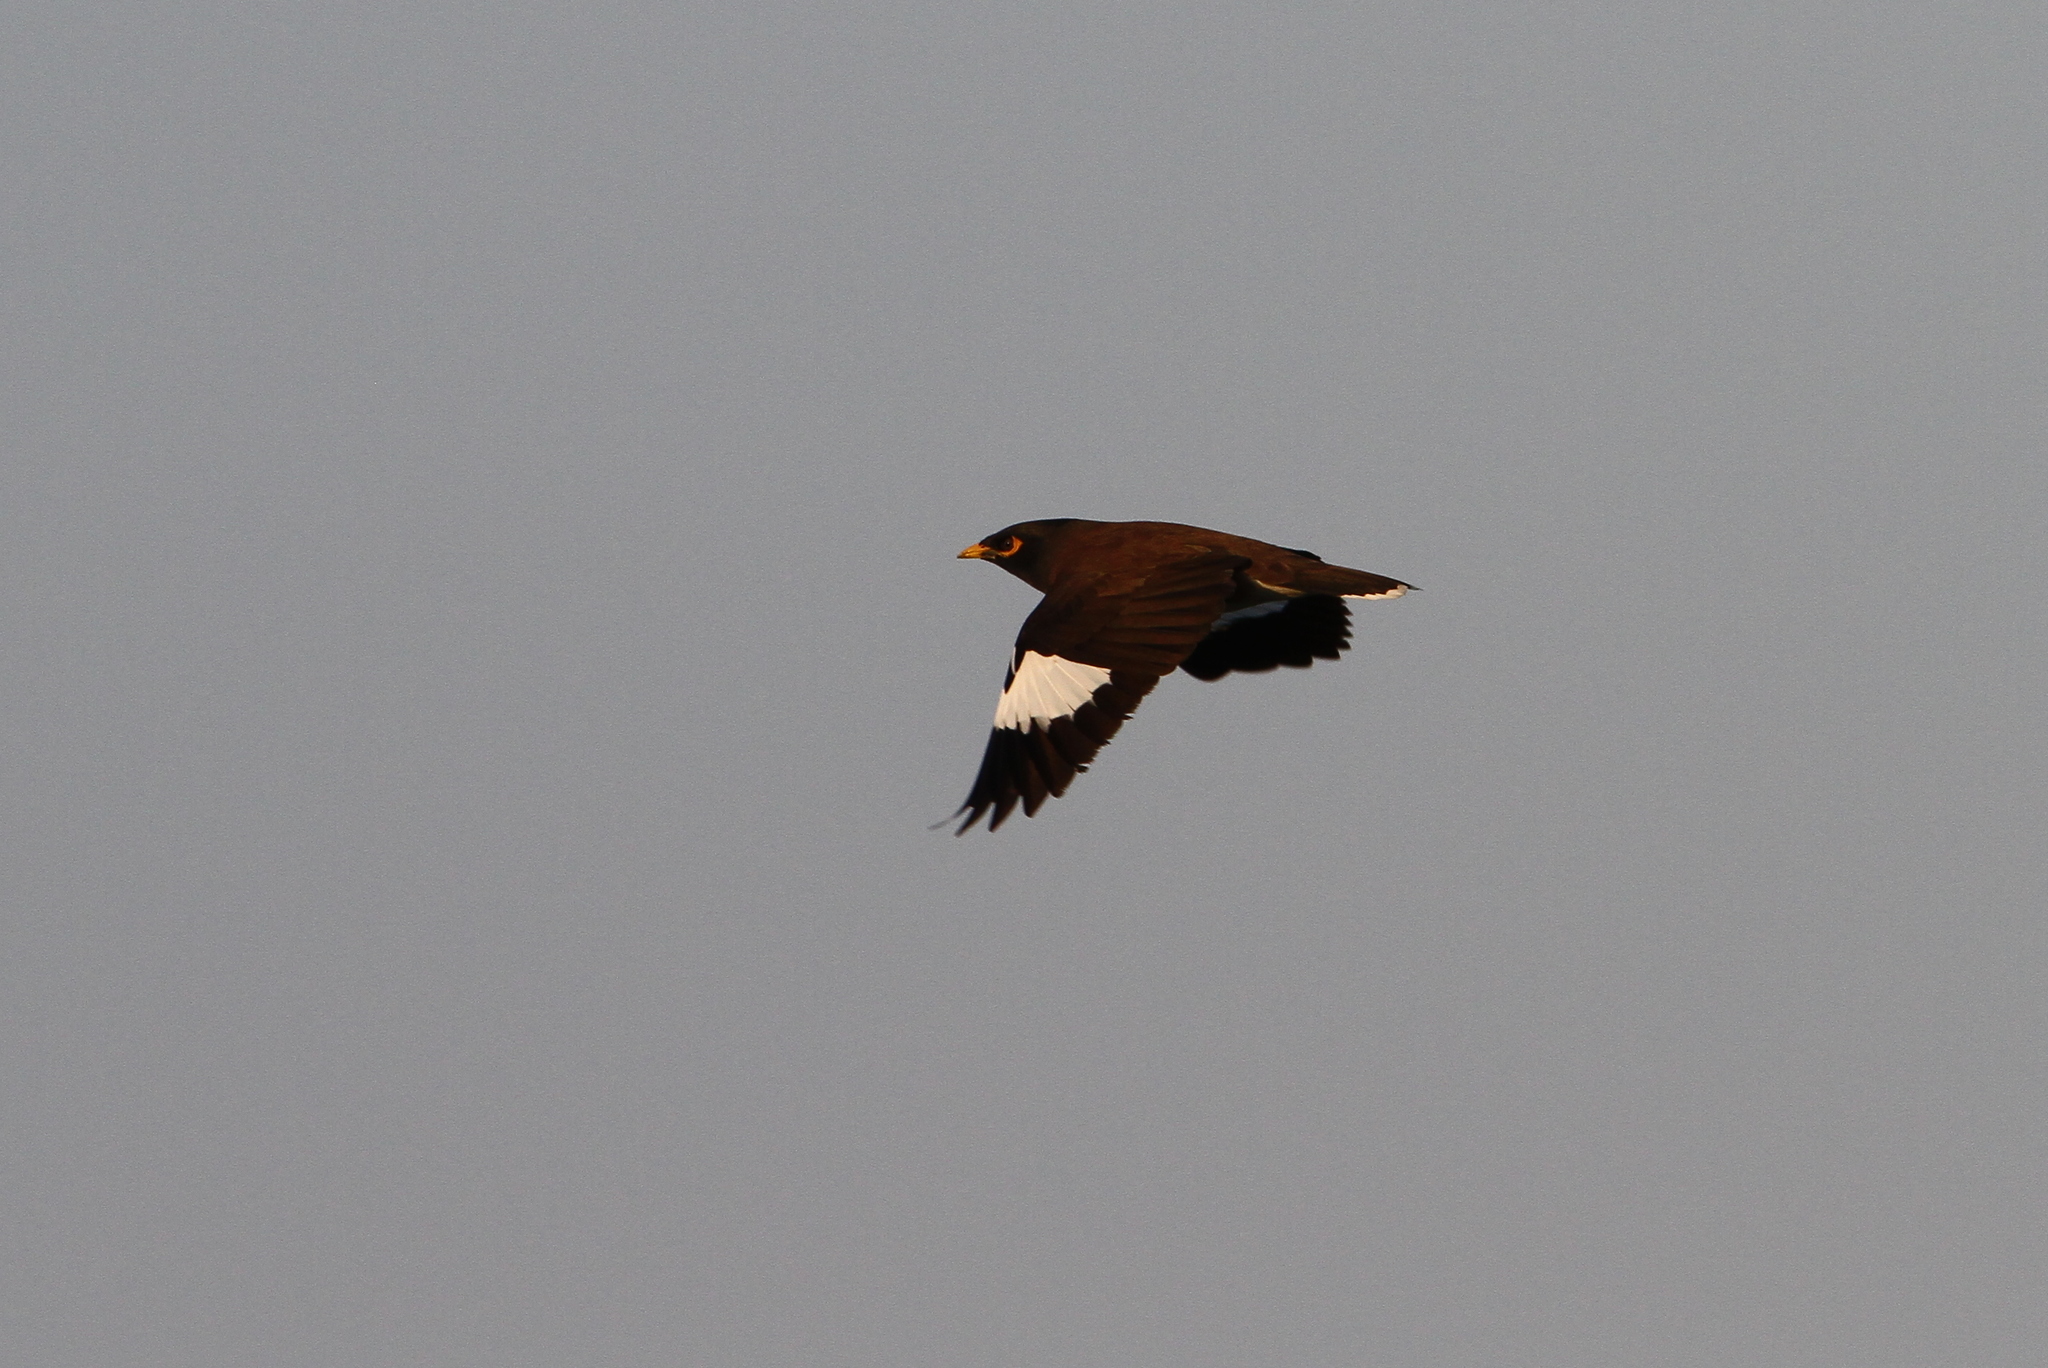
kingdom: Animalia
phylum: Chordata
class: Aves
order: Passeriformes
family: Sturnidae
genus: Acridotheres
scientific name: Acridotheres tristis
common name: Common myna
